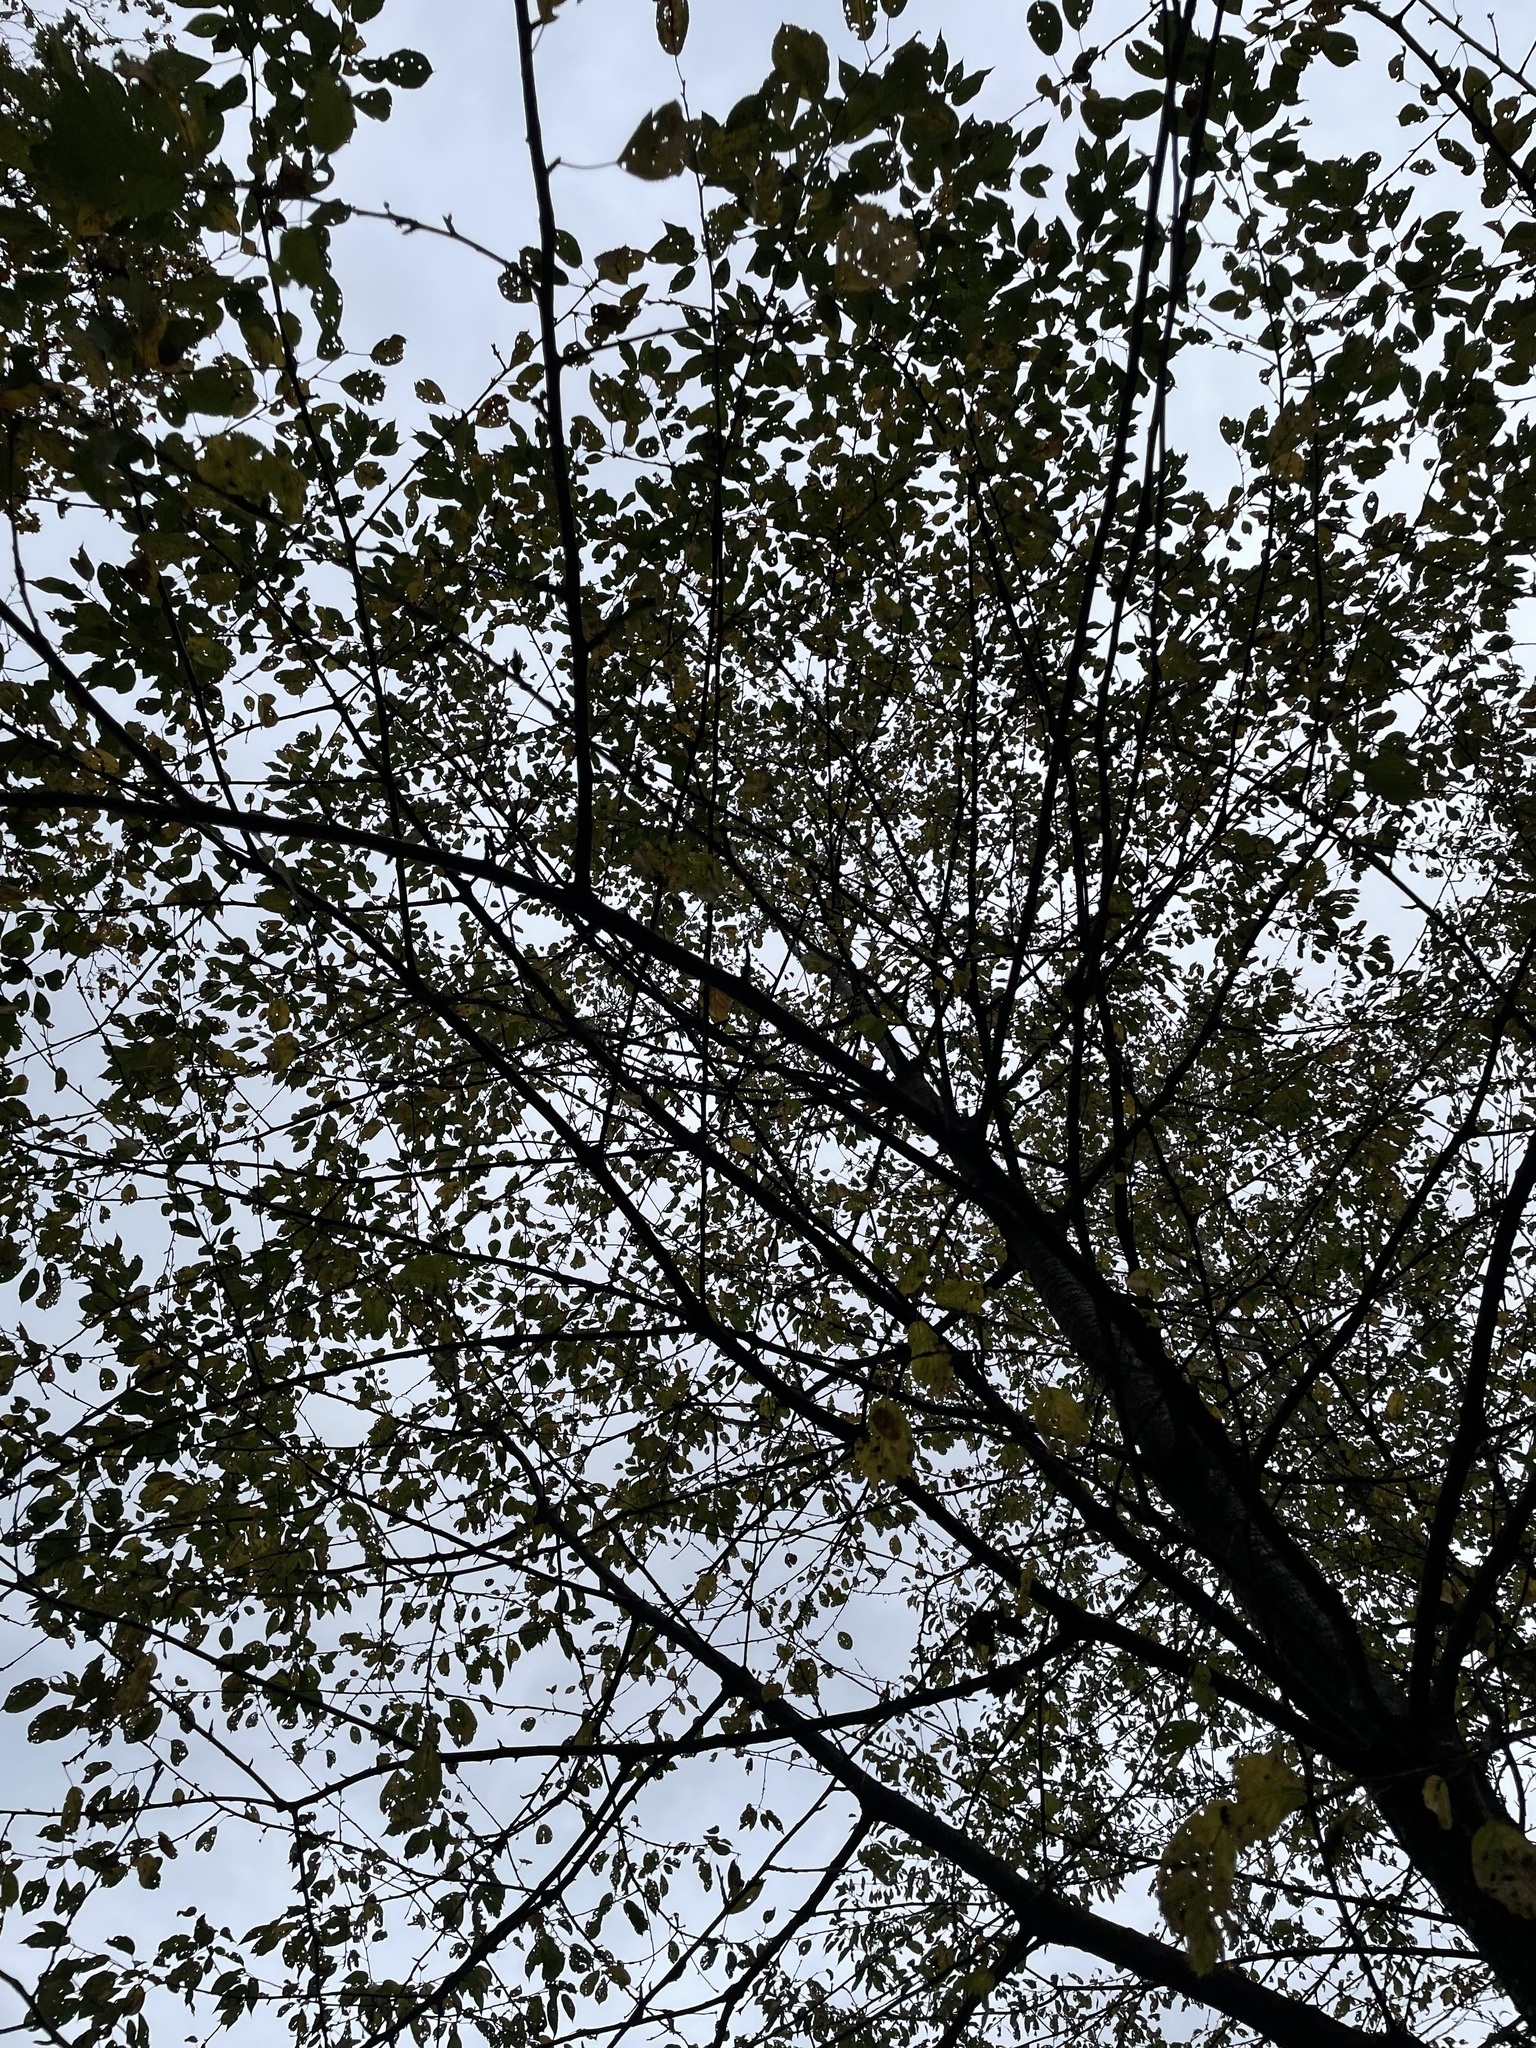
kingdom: Plantae
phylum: Tracheophyta
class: Magnoliopsida
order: Rosales
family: Rosaceae
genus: Prunus
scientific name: Prunus avium
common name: Sweet cherry
